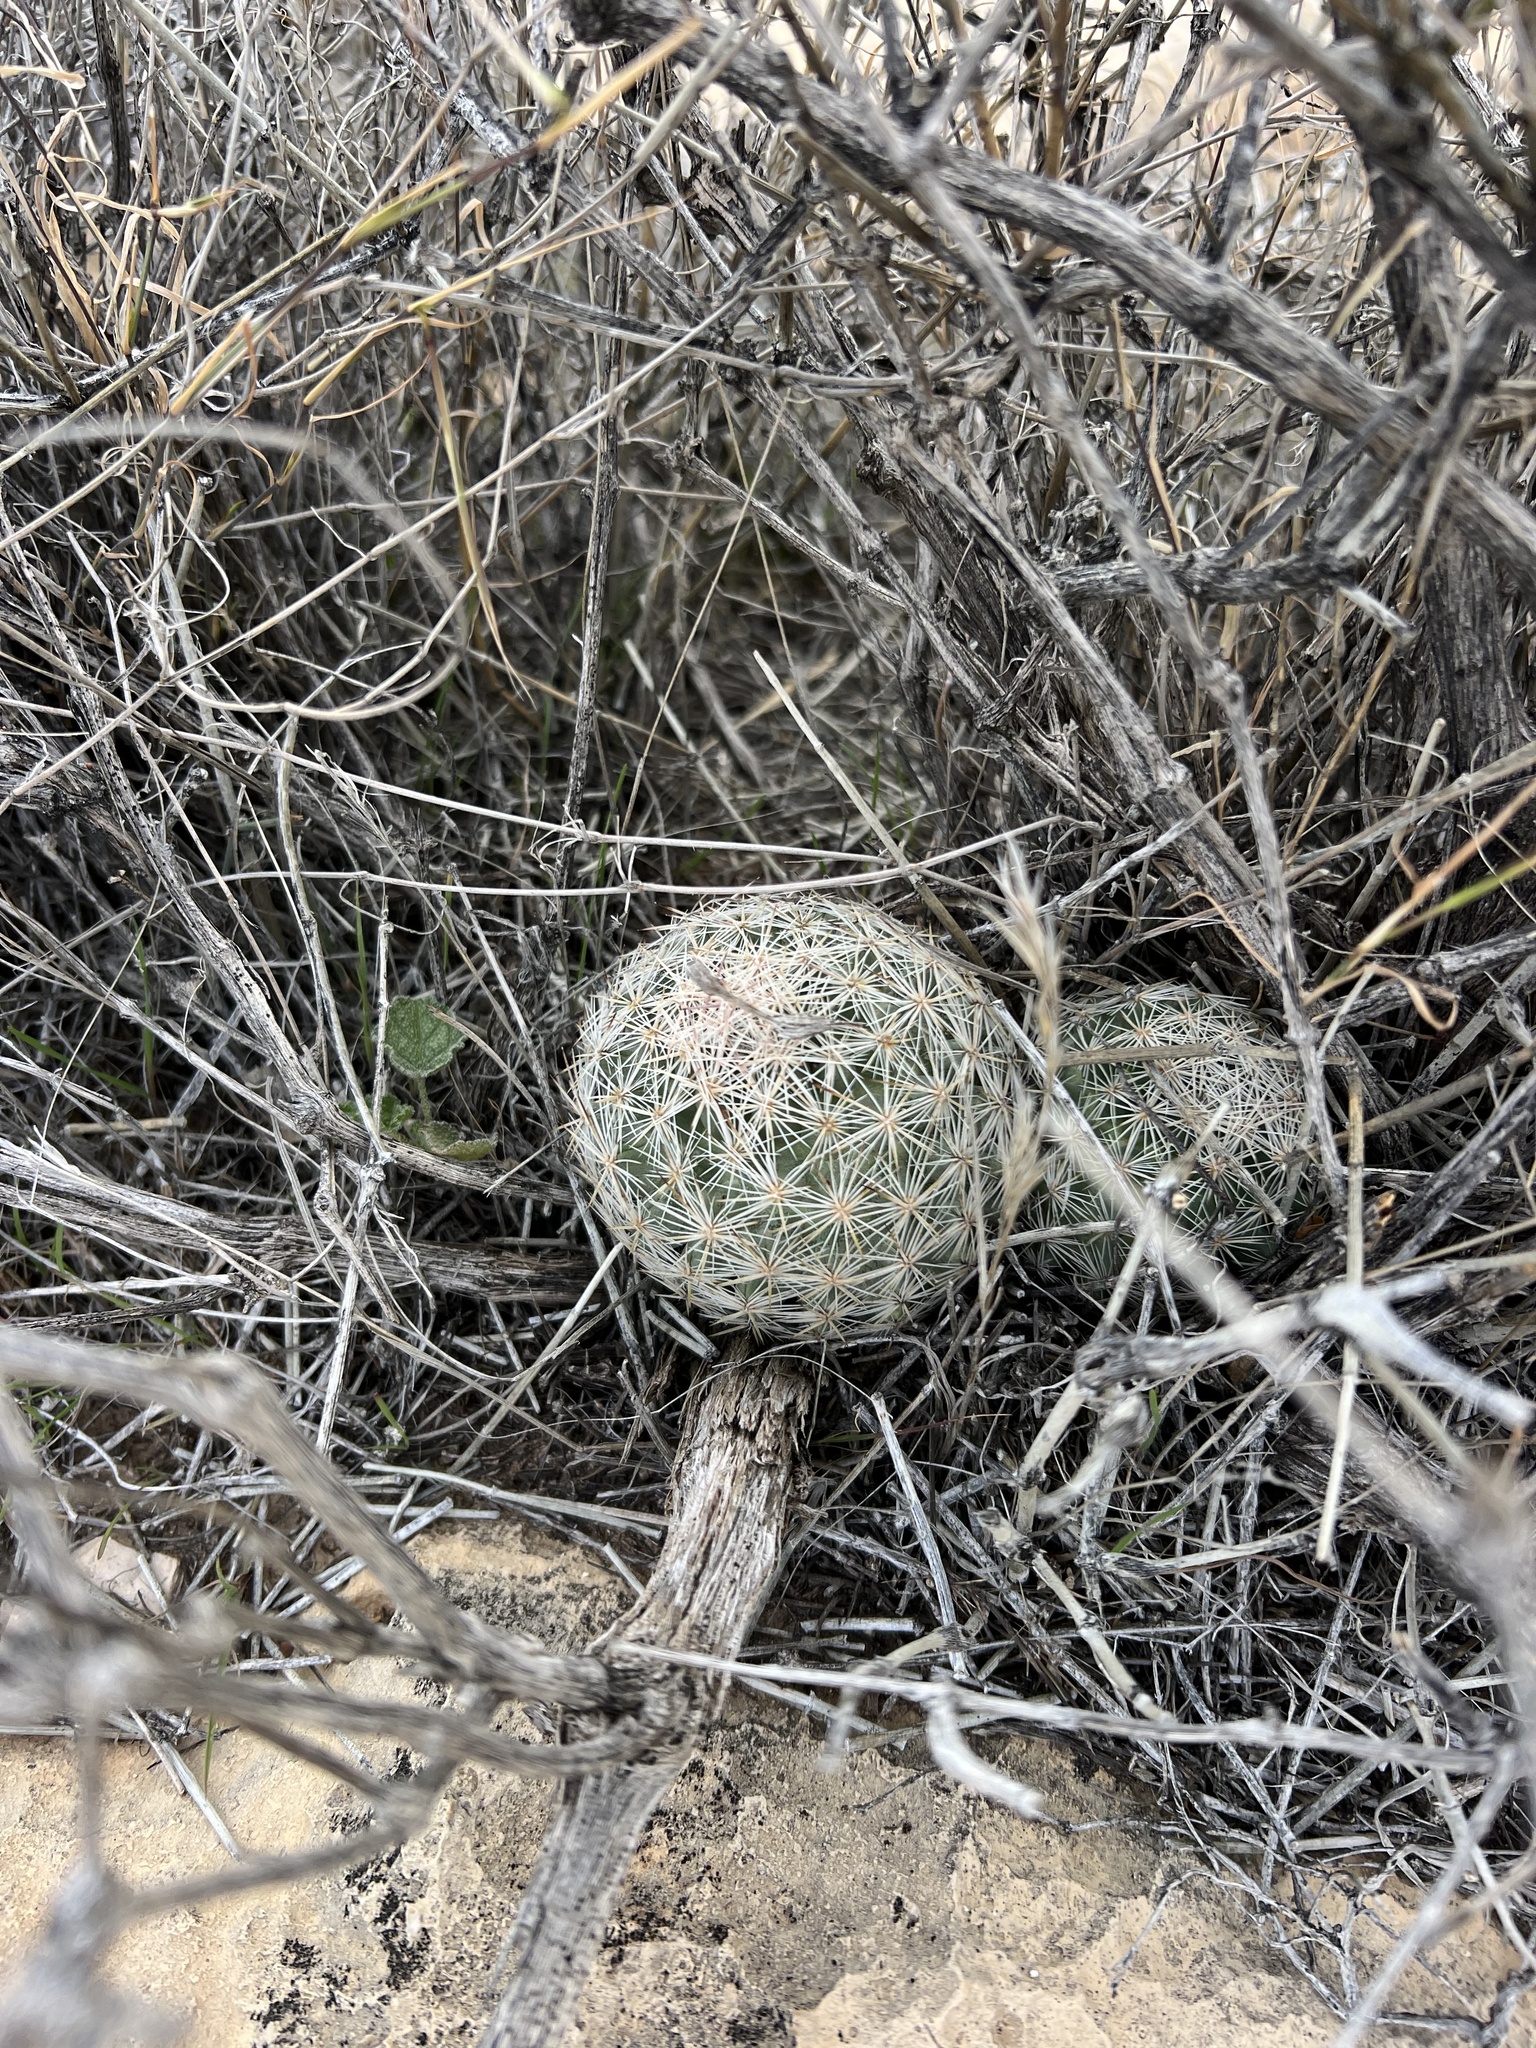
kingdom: Plantae
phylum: Tracheophyta
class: Magnoliopsida
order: Caryophyllales
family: Cactaceae
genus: Pelecyphora
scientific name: Pelecyphora dasyacantha
